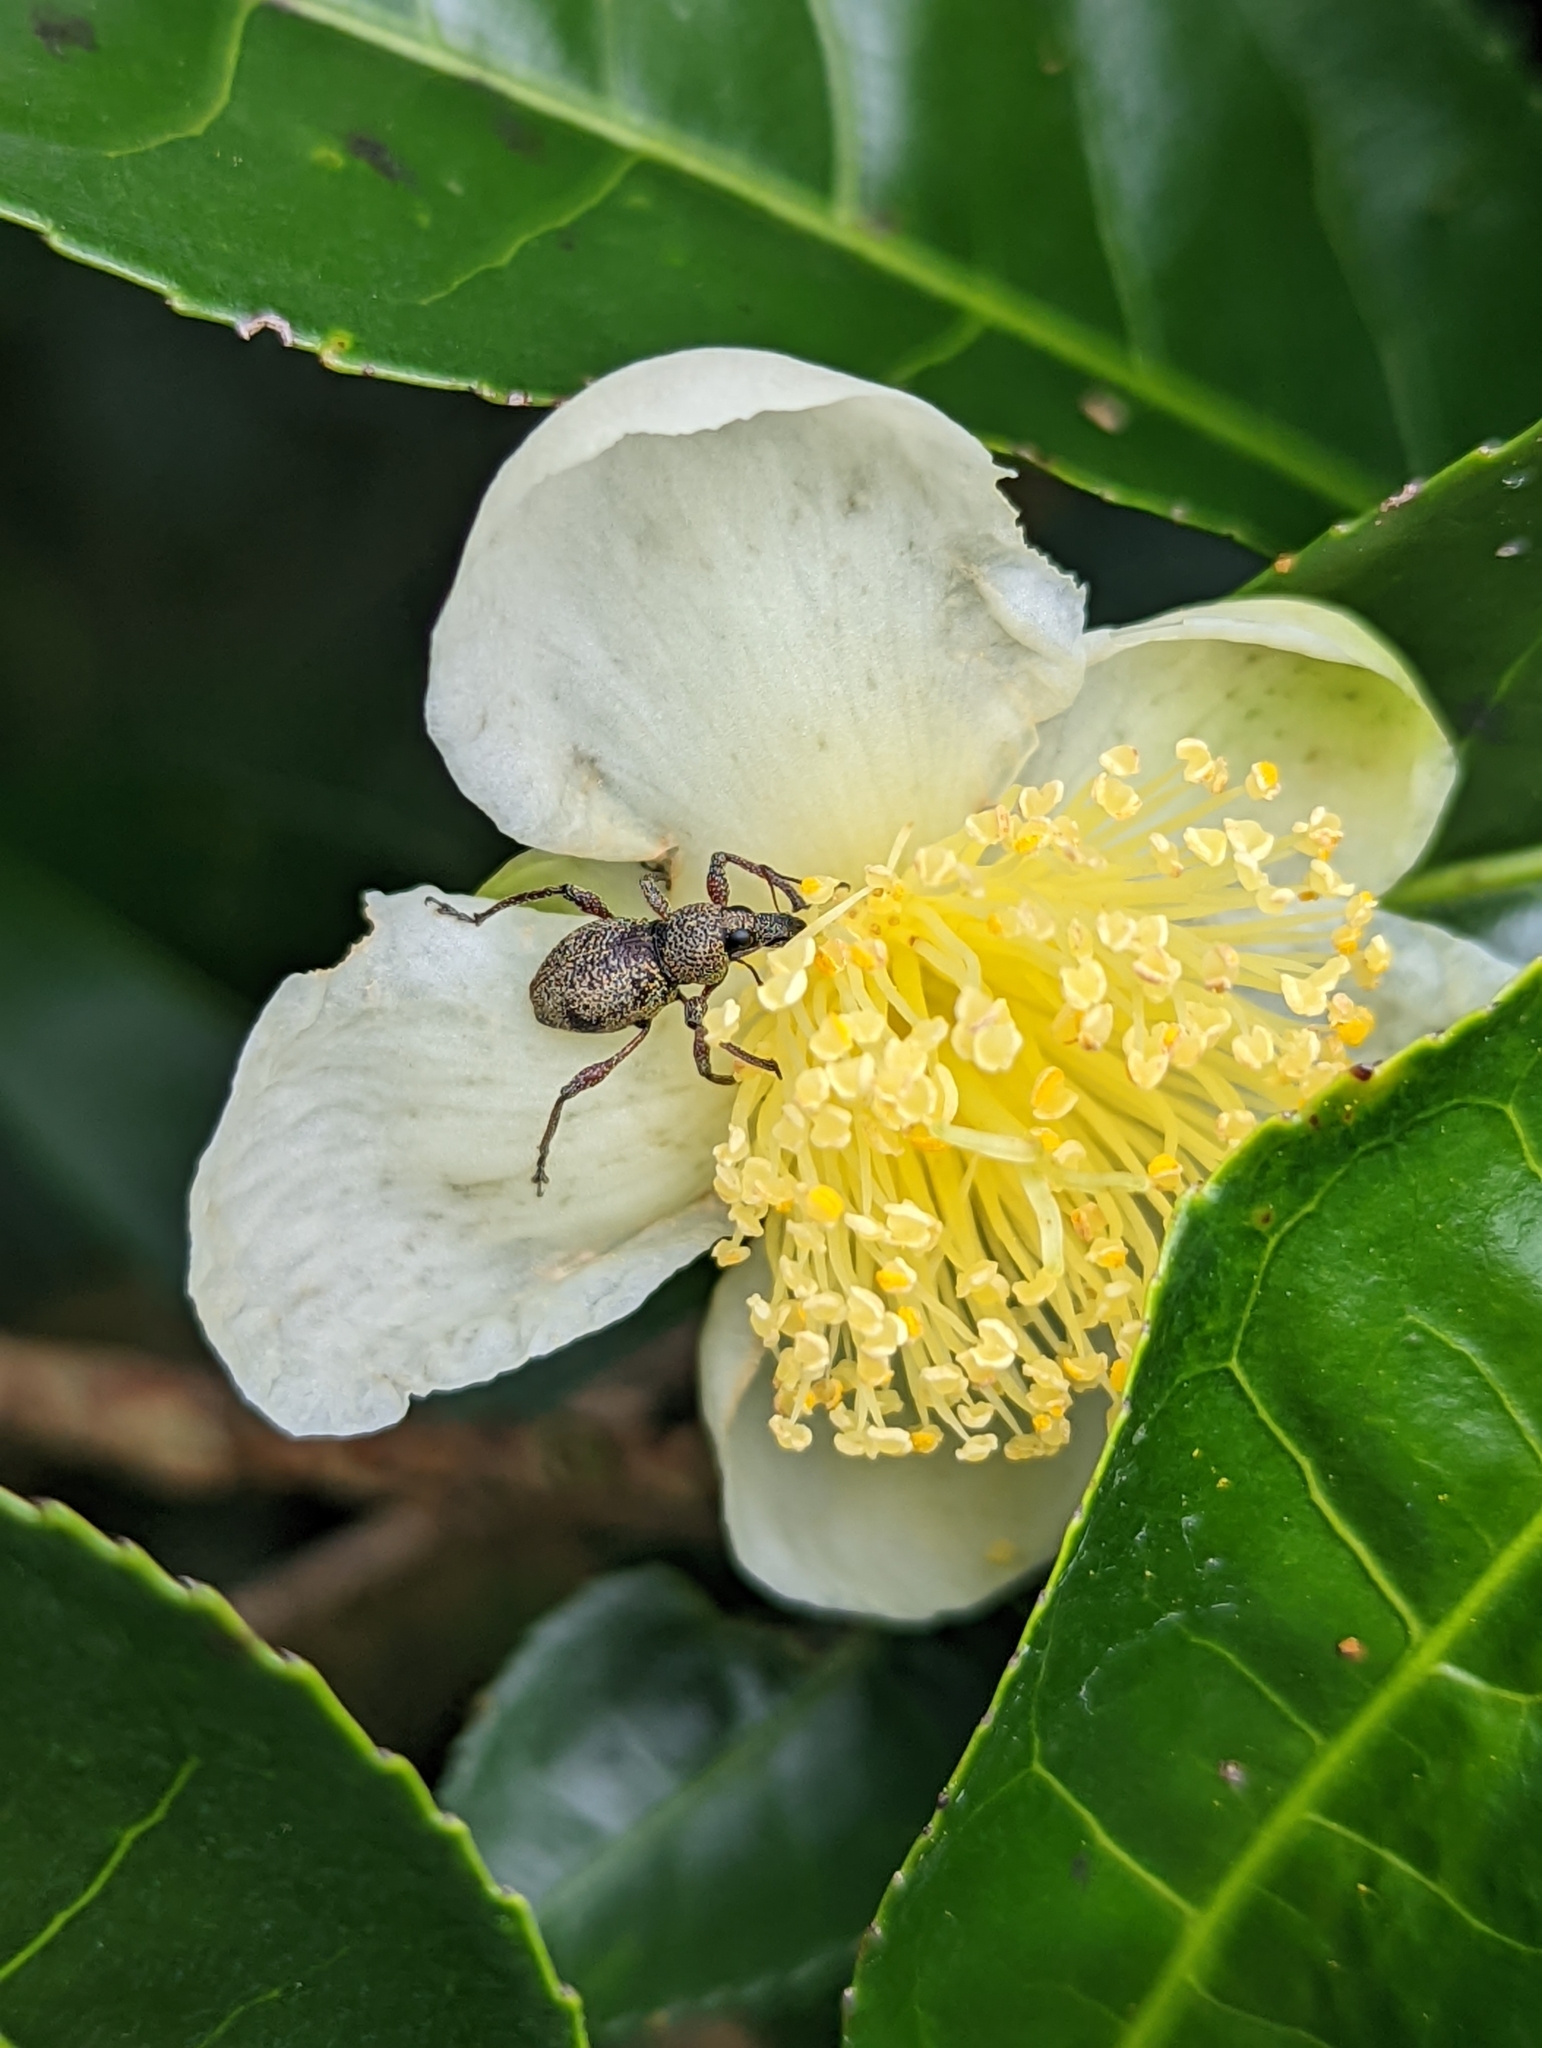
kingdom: Animalia
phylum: Arthropoda
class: Insecta
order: Coleoptera
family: Curculionidae
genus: Metapocyrtus
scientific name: Metapocyrtus adspersus
